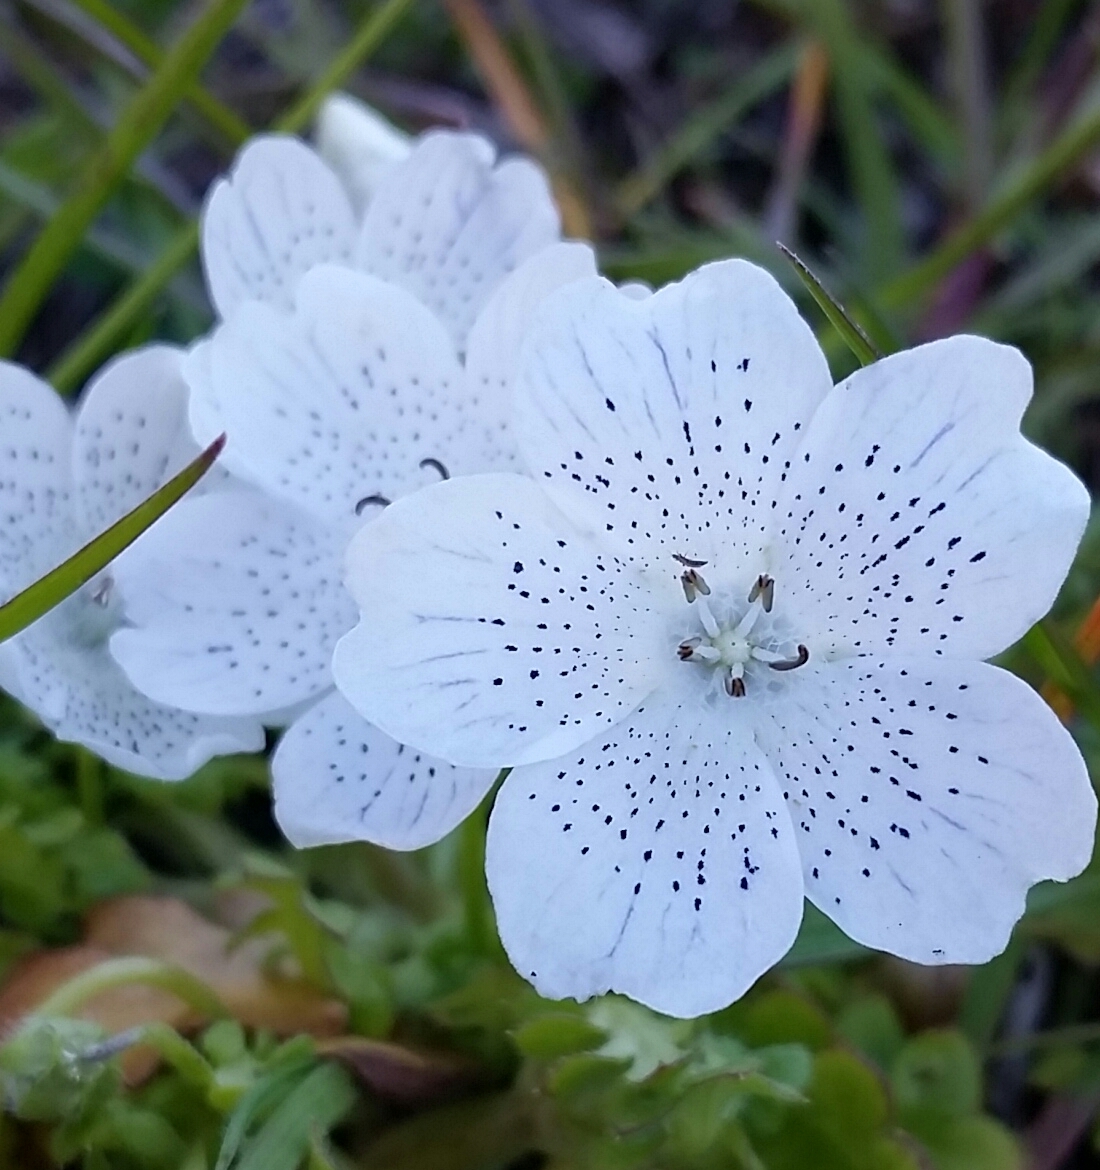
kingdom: Plantae
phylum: Tracheophyta
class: Magnoliopsida
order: Boraginales
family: Hydrophyllaceae
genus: Nemophila
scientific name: Nemophila menziesii
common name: Baby's-blue-eyes
